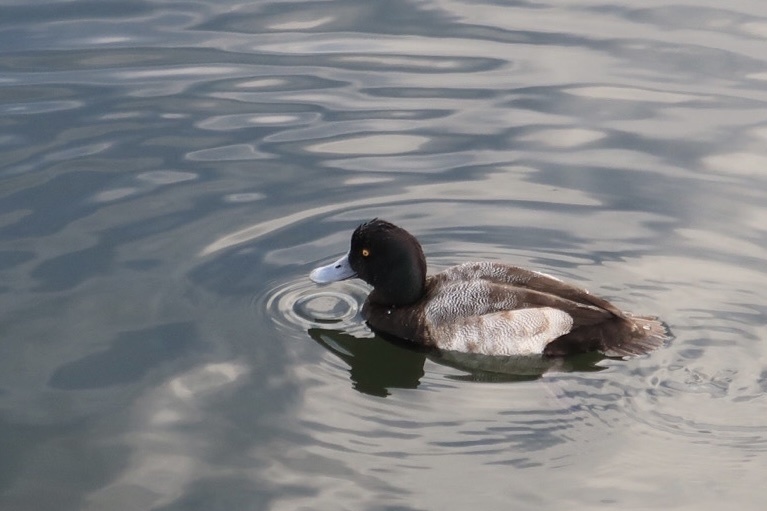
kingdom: Animalia
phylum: Chordata
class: Aves
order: Anseriformes
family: Anatidae
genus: Aythya
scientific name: Aythya affinis
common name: Lesser scaup
